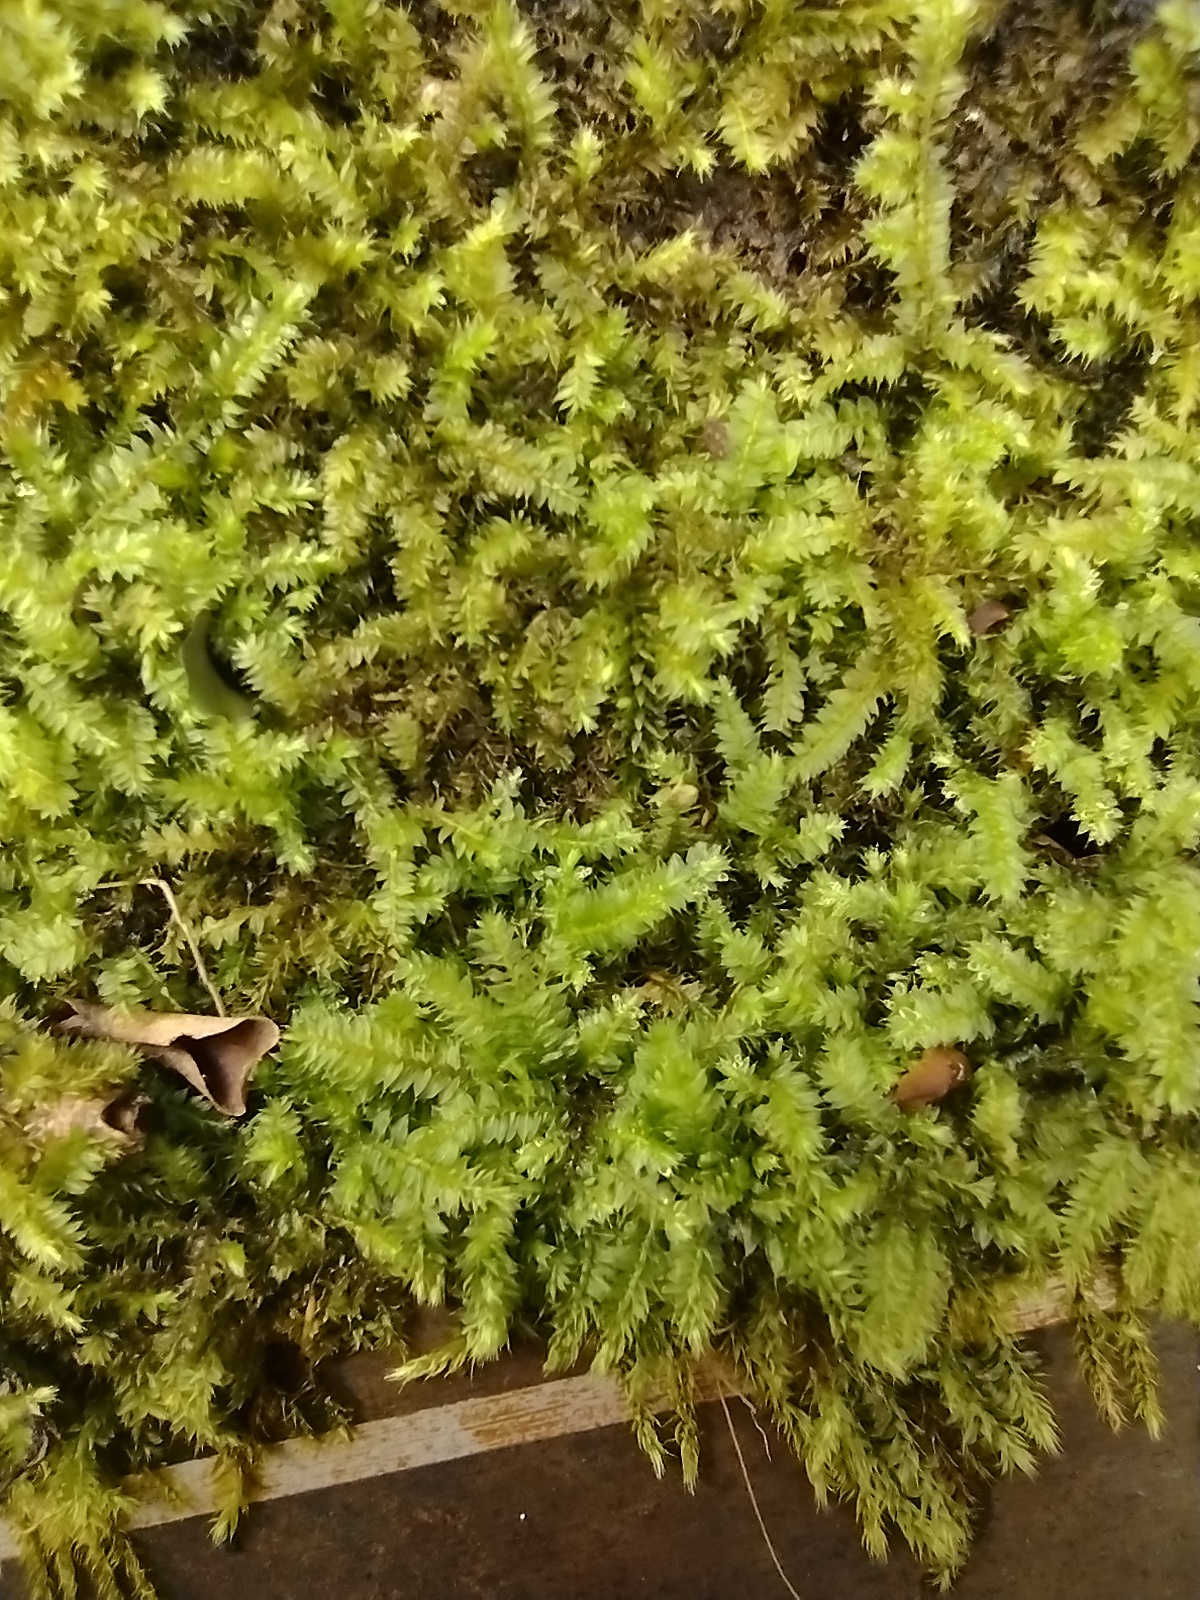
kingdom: Plantae
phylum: Bryophyta
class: Bryopsida
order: Hypnodendrales
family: Racopilaceae
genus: Racopilum
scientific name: Racopilum cuspidigerum
